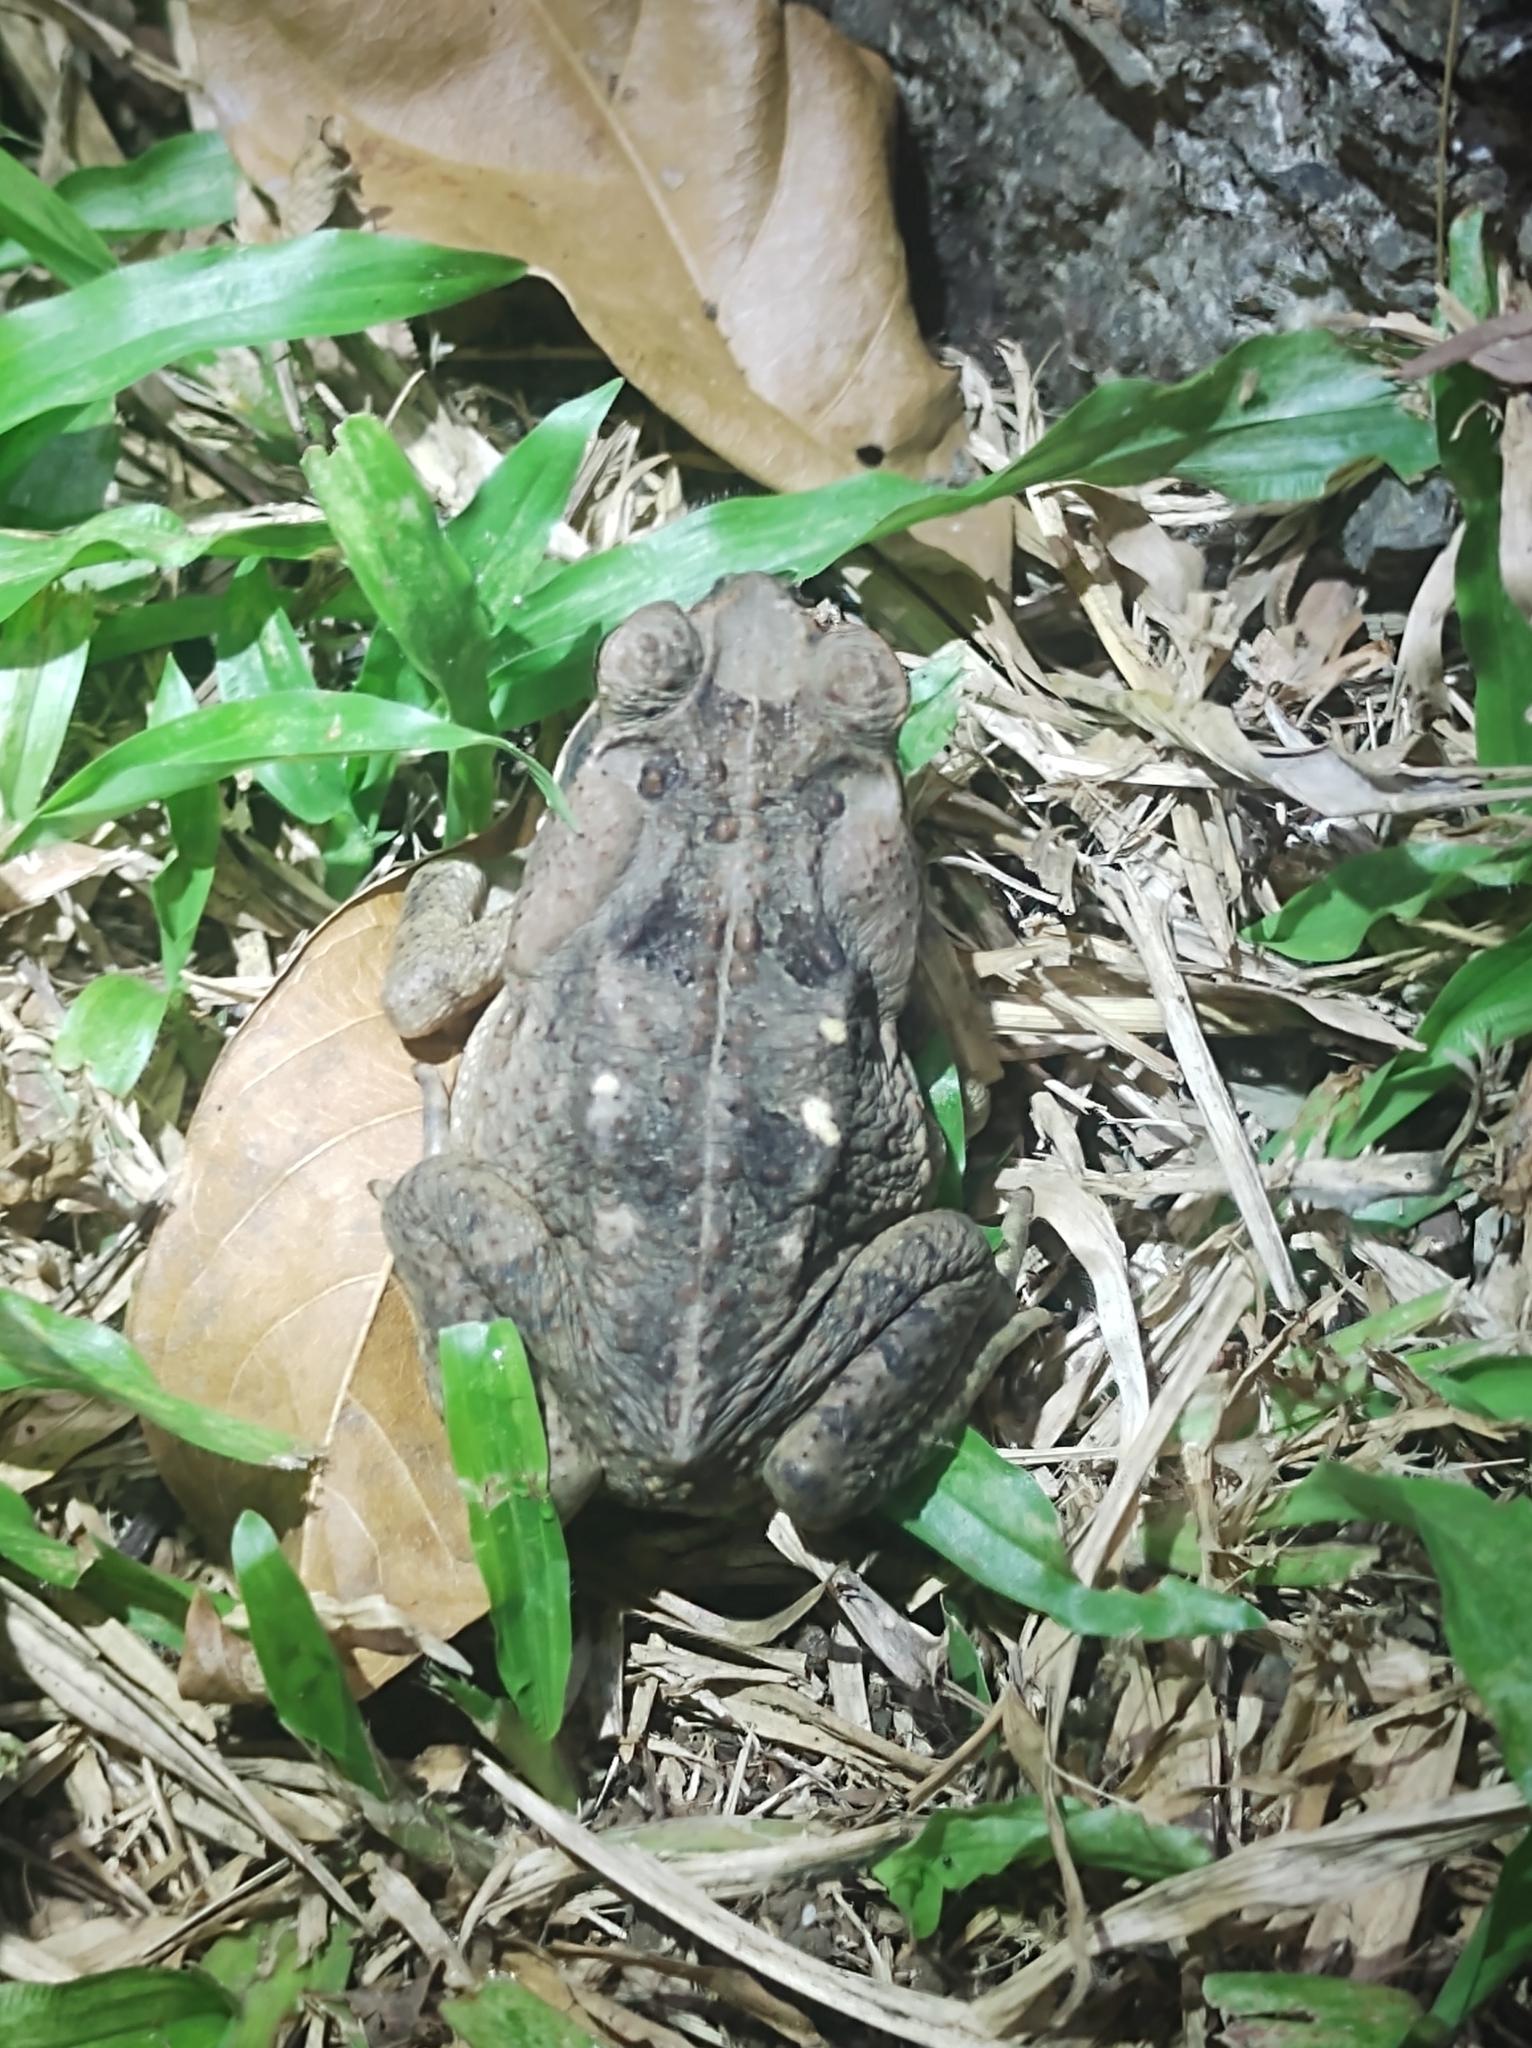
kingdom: Animalia
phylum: Chordata
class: Amphibia
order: Anura
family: Bufonidae
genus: Rhinella
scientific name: Rhinella horribilis
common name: Mesoamerican cane toad
